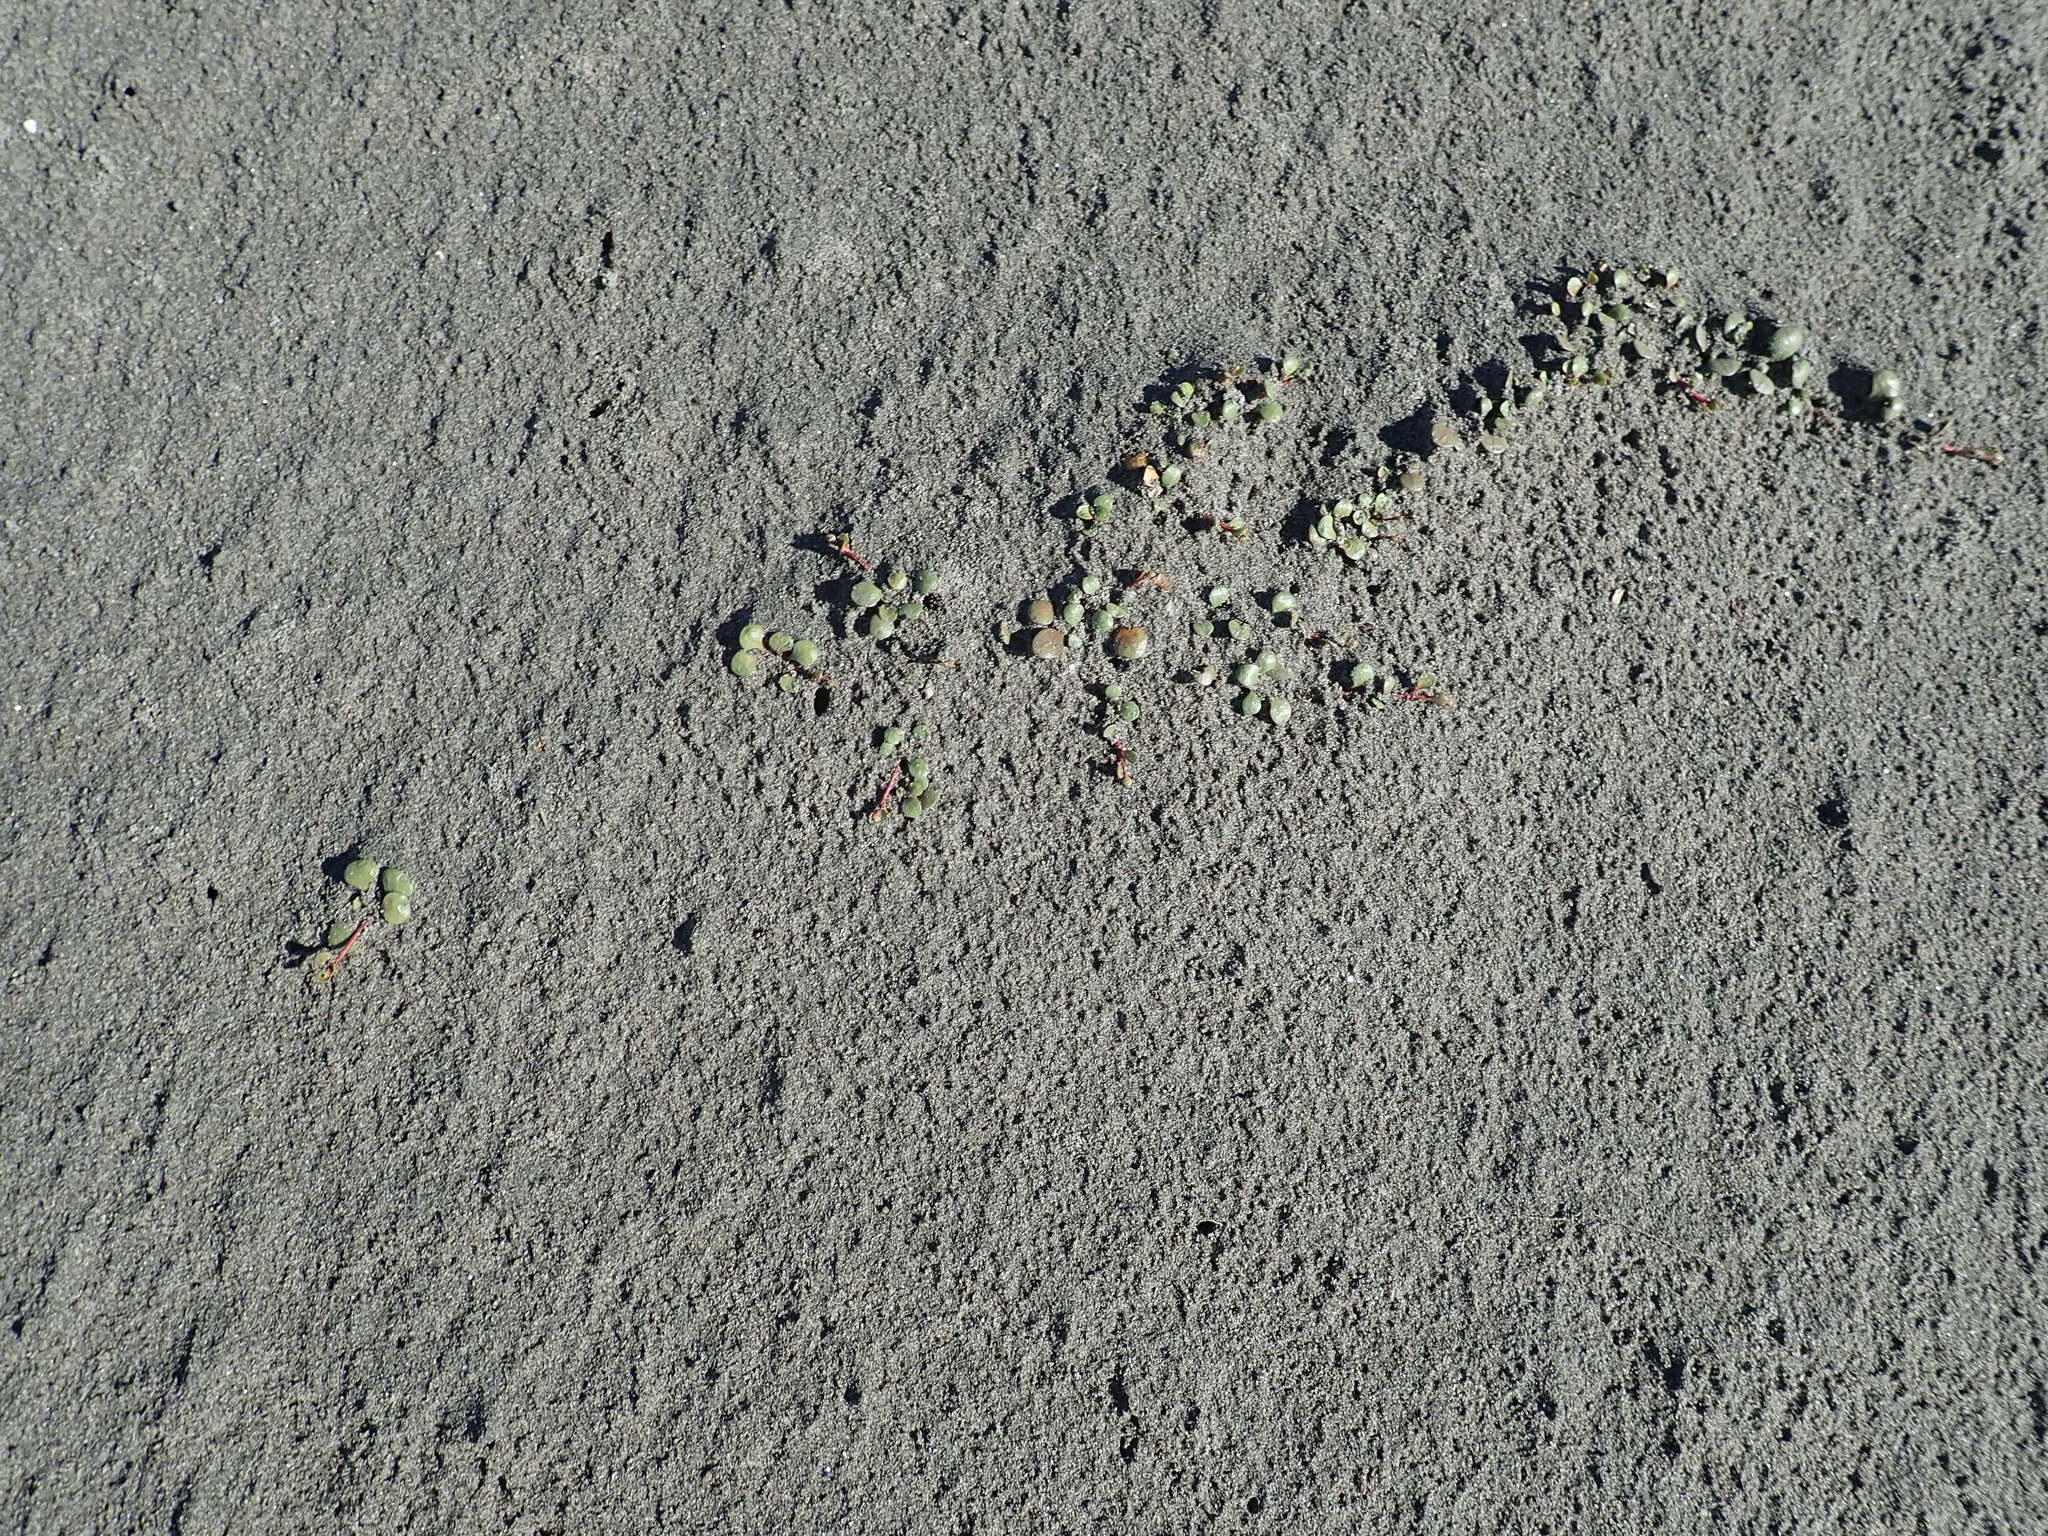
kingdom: Plantae
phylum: Tracheophyta
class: Magnoliopsida
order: Ericales
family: Primulaceae
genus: Samolus
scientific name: Samolus repens
